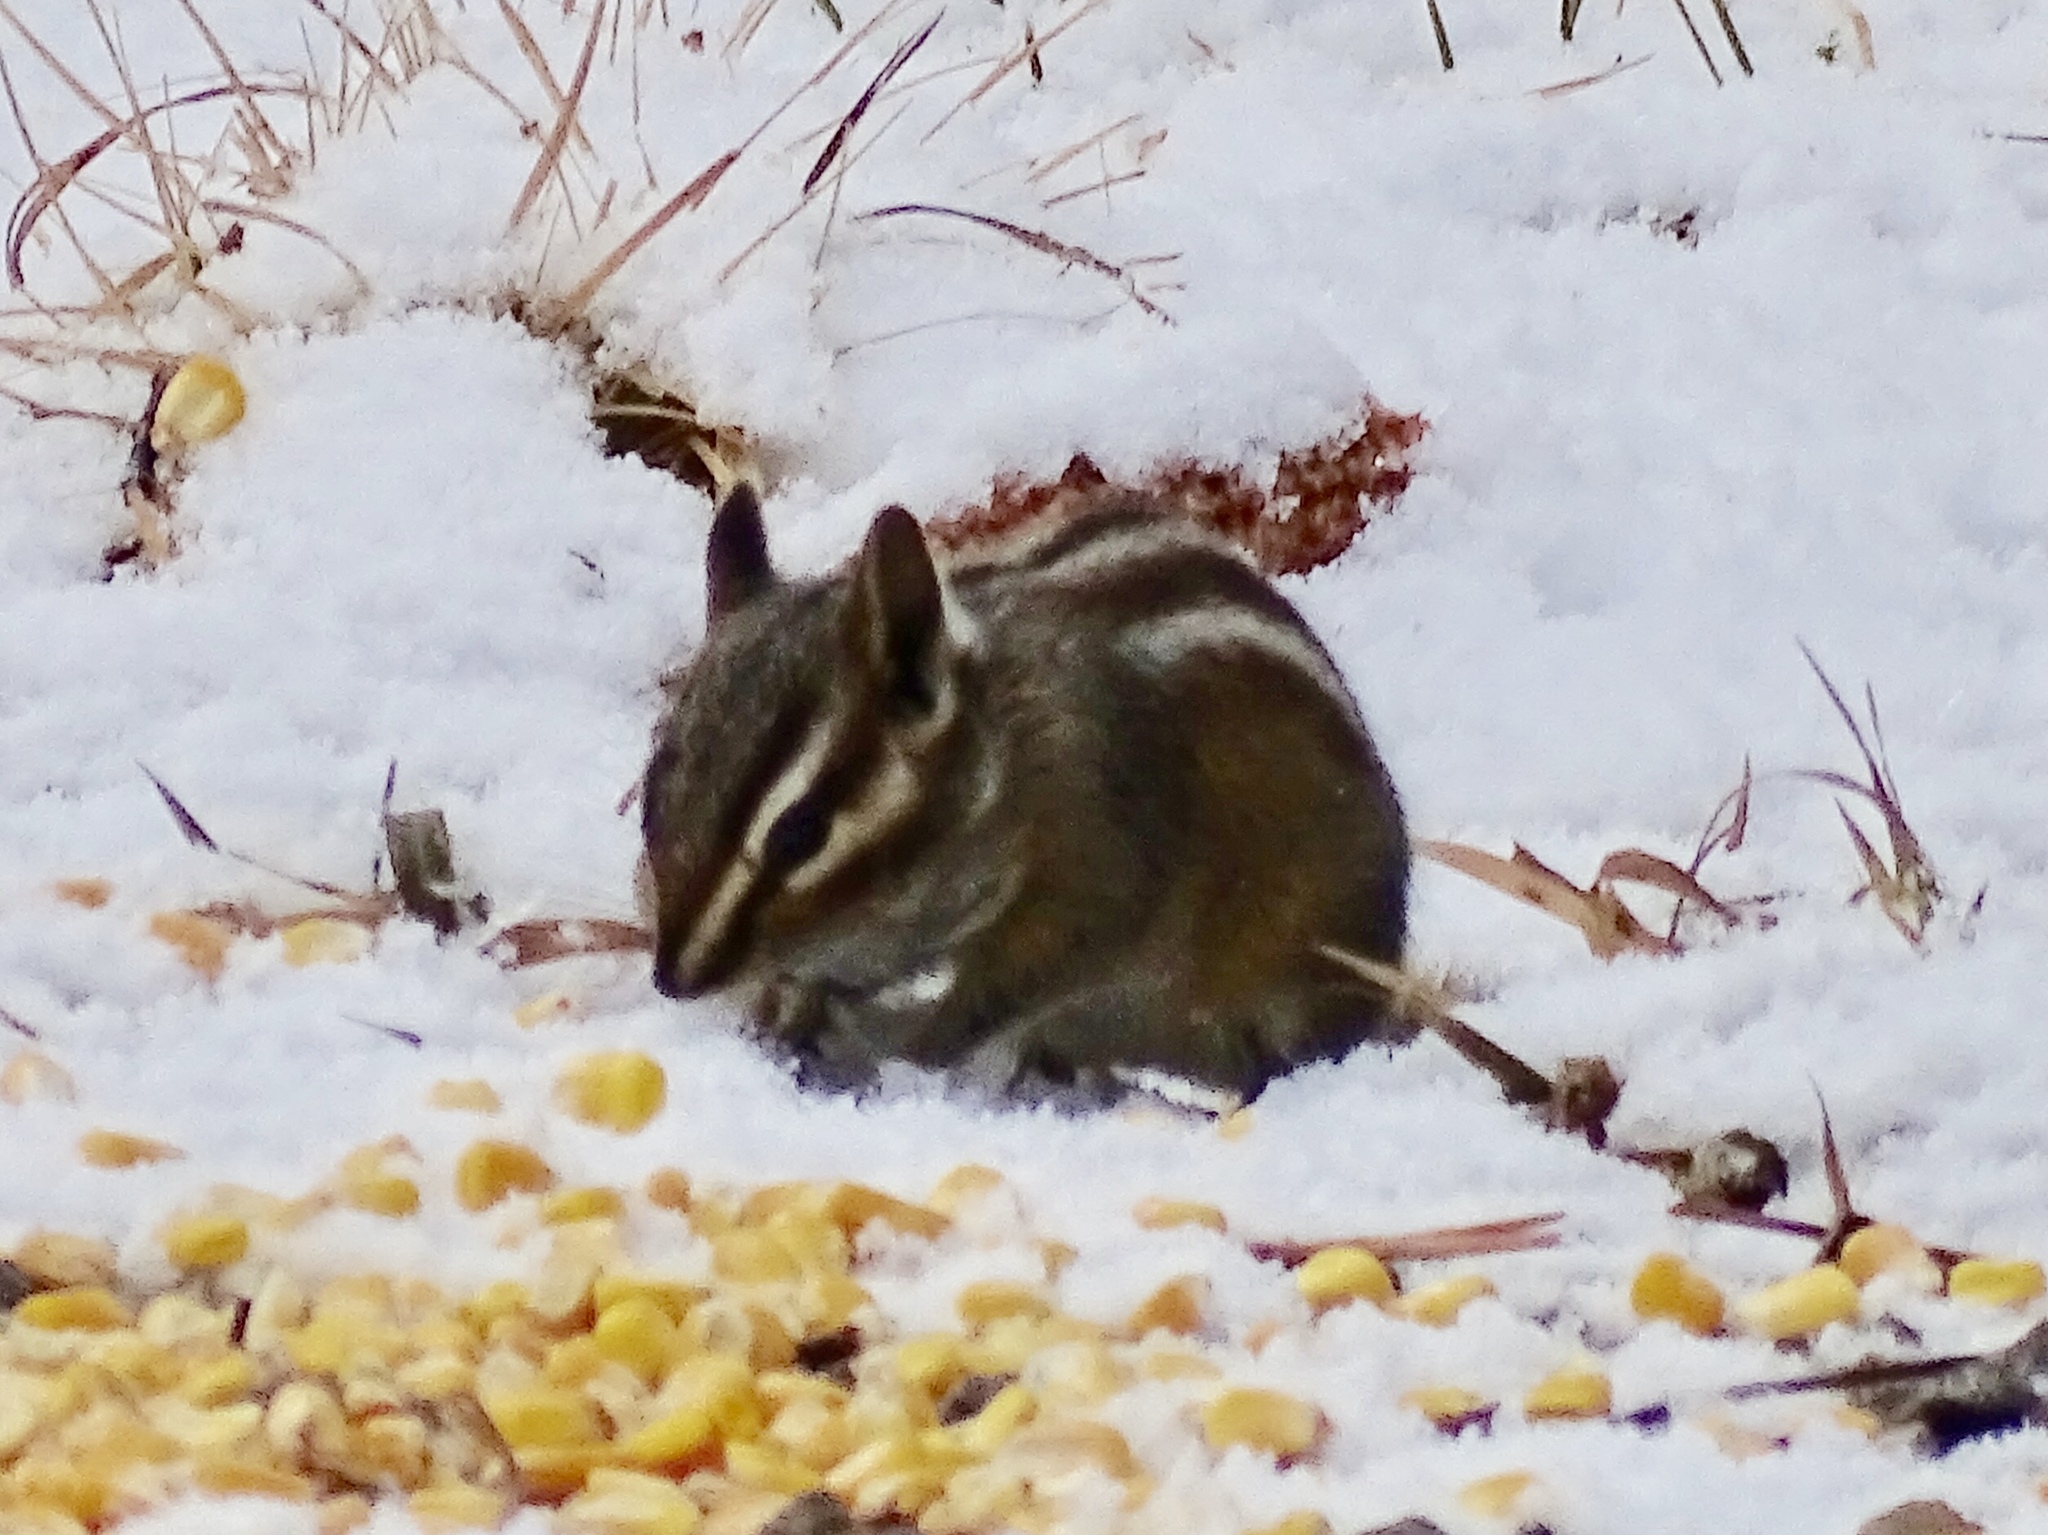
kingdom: Animalia
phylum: Chordata
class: Mammalia
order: Rodentia
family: Sciuridae
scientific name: Sciuridae
